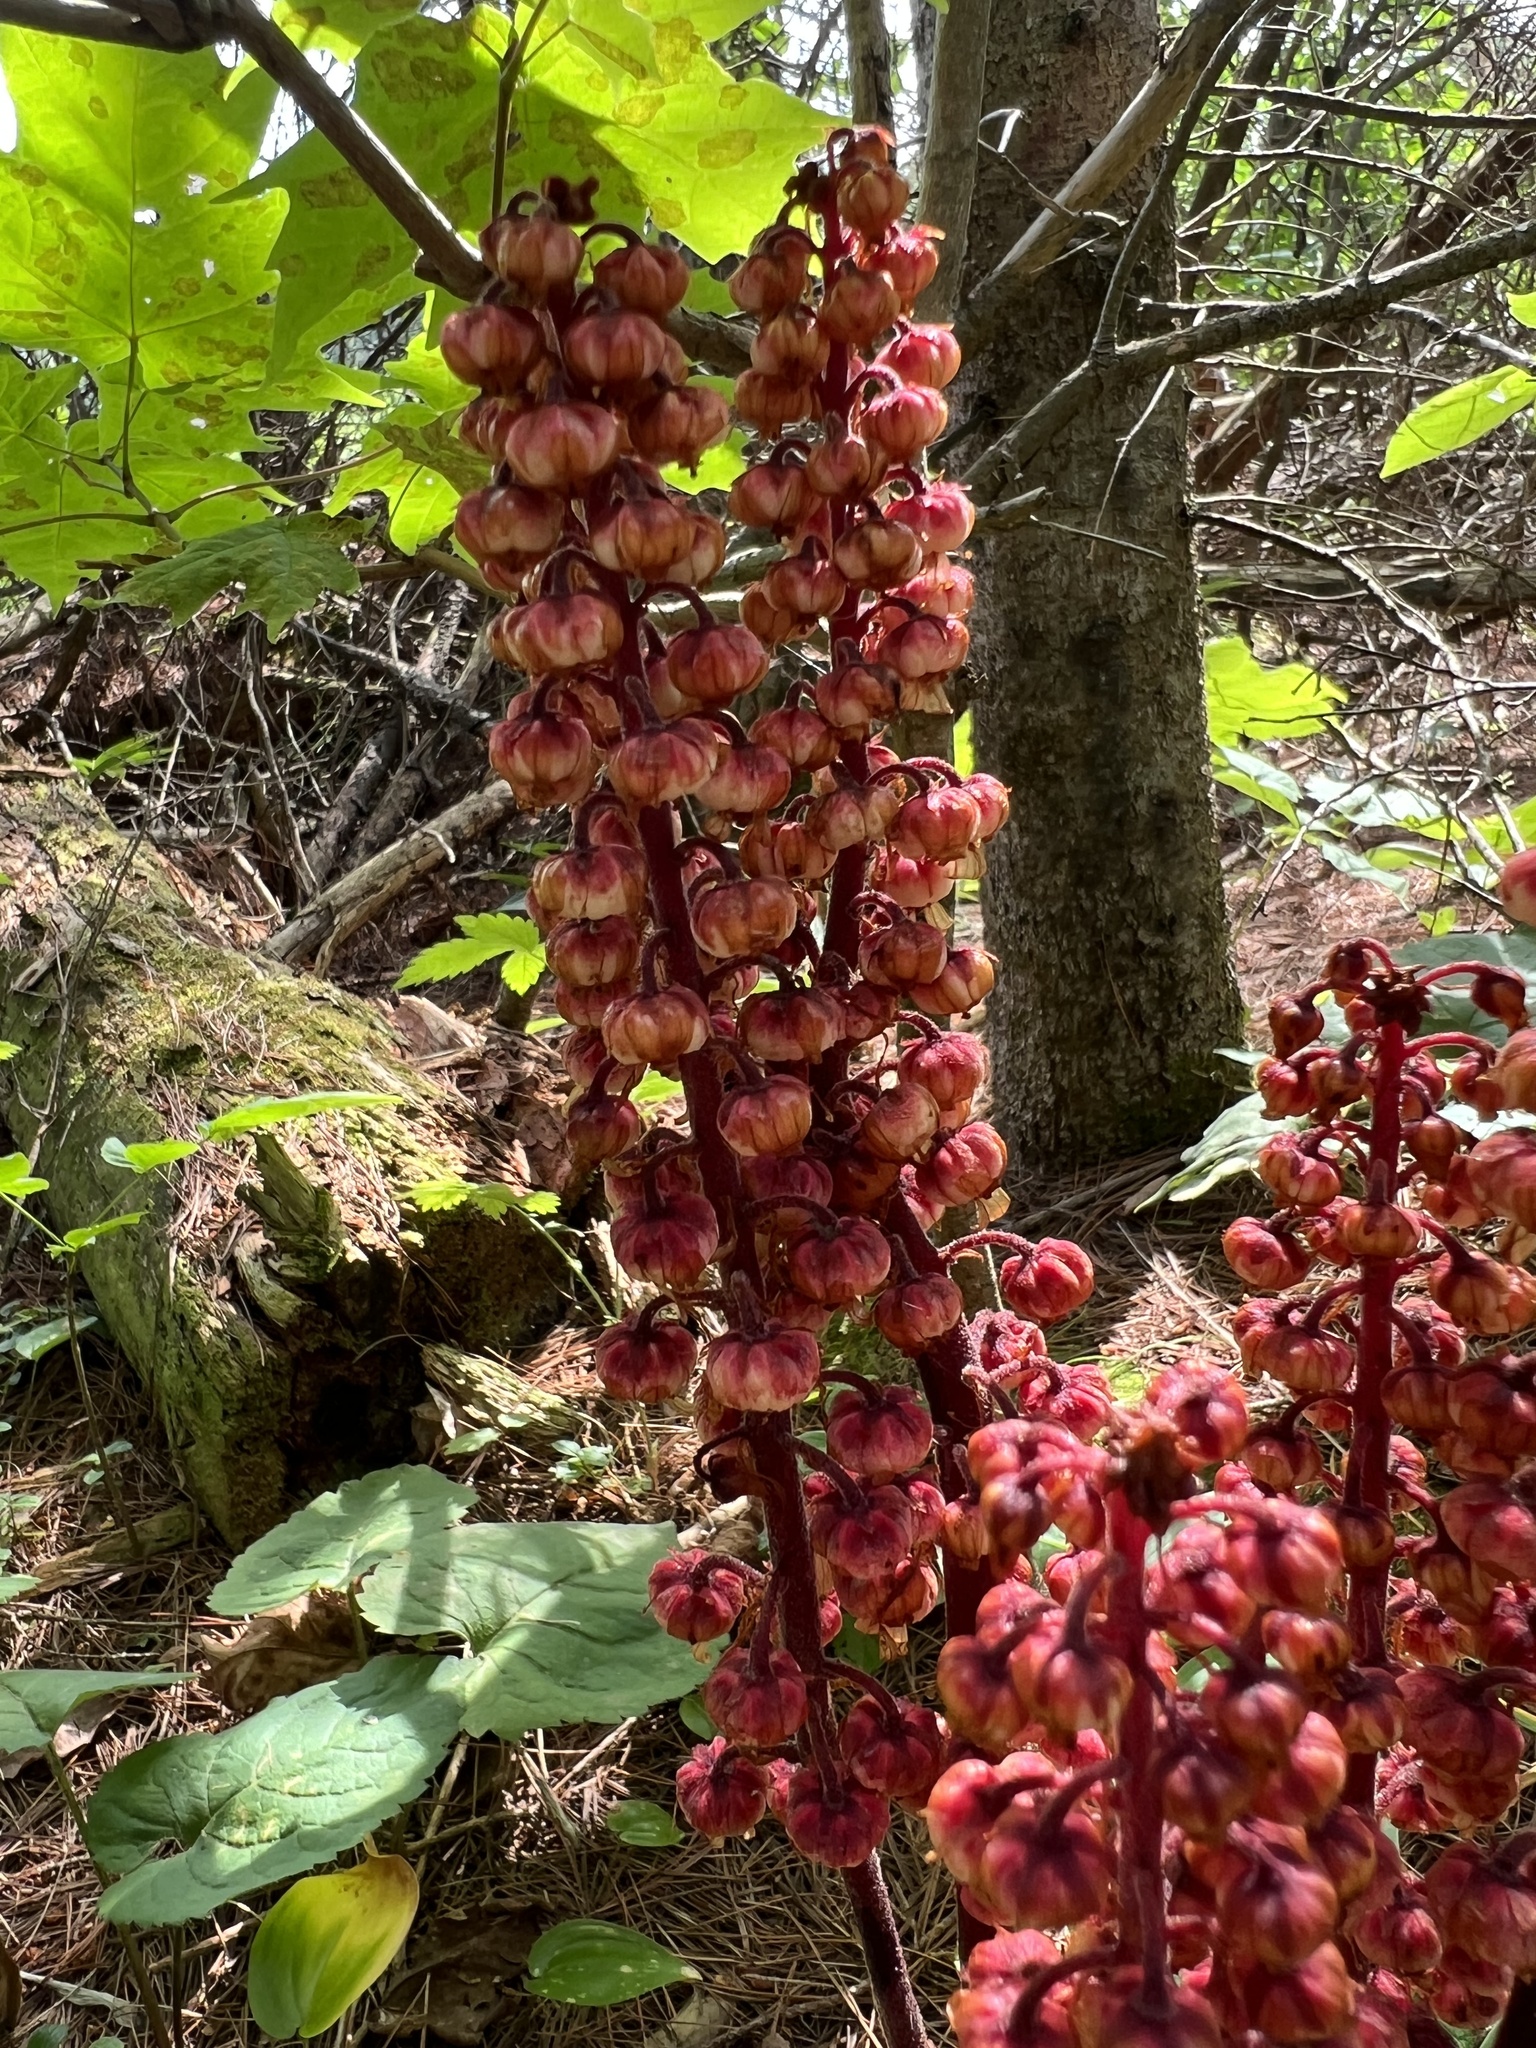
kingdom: Plantae
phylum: Tracheophyta
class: Magnoliopsida
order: Ericales
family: Ericaceae
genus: Pterospora
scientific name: Pterospora andromedea
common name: Giant bird's-nest
